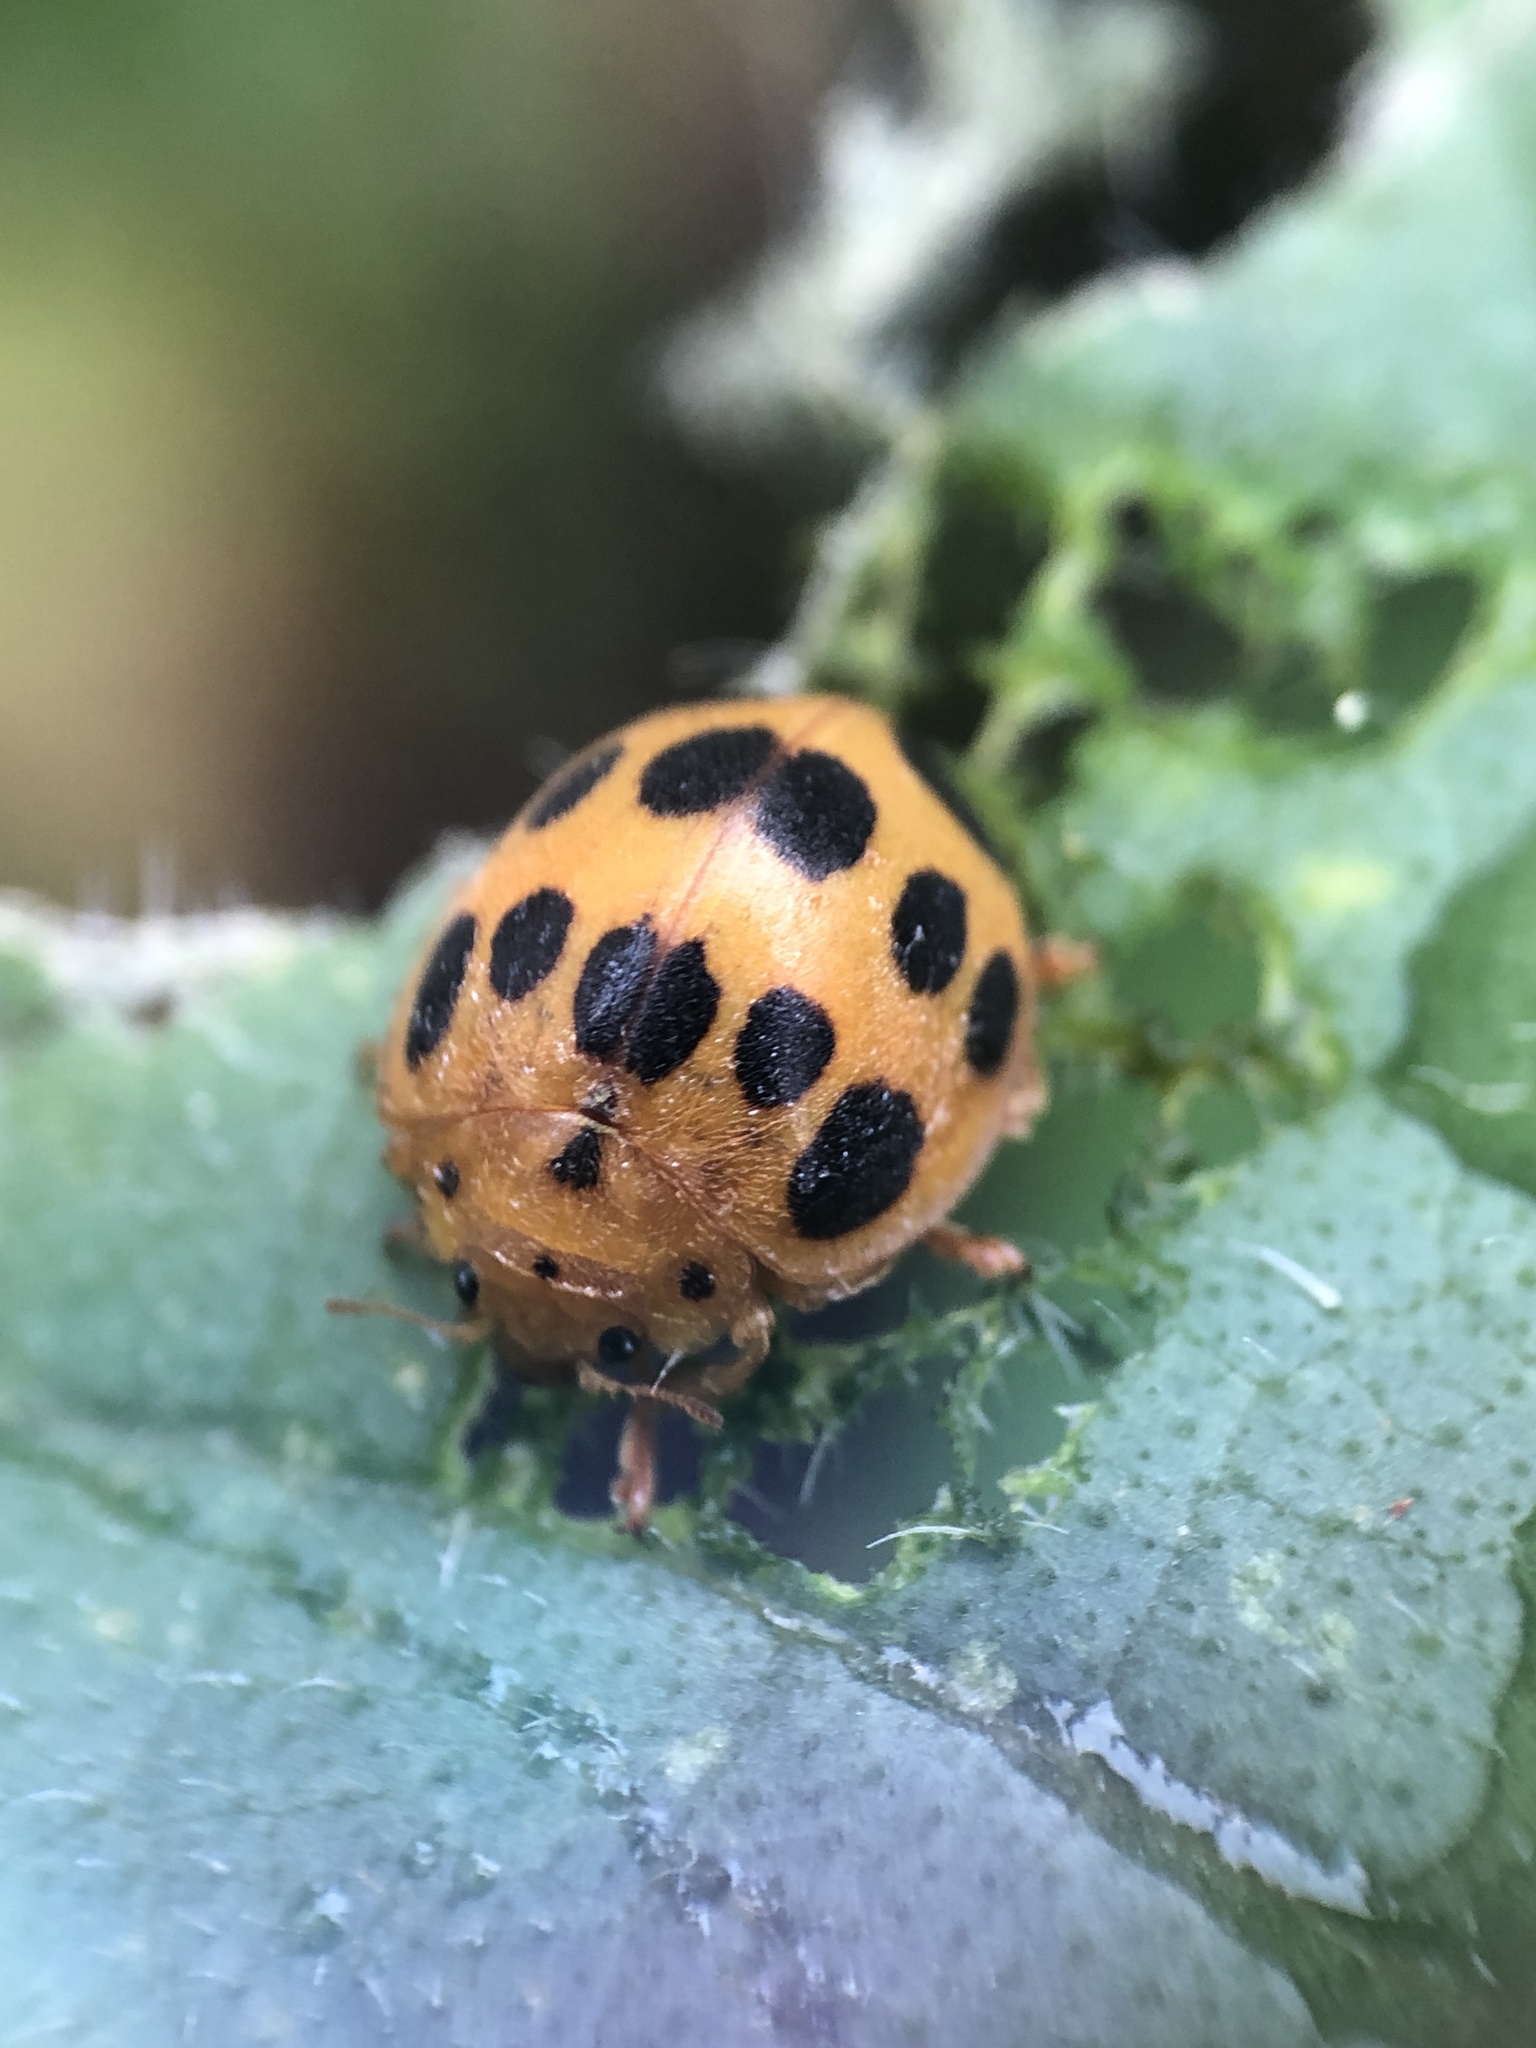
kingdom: Animalia
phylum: Arthropoda
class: Insecta
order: Coleoptera
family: Coccinellidae
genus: Epilachna
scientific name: Epilachna borealis
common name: Squash beetle
